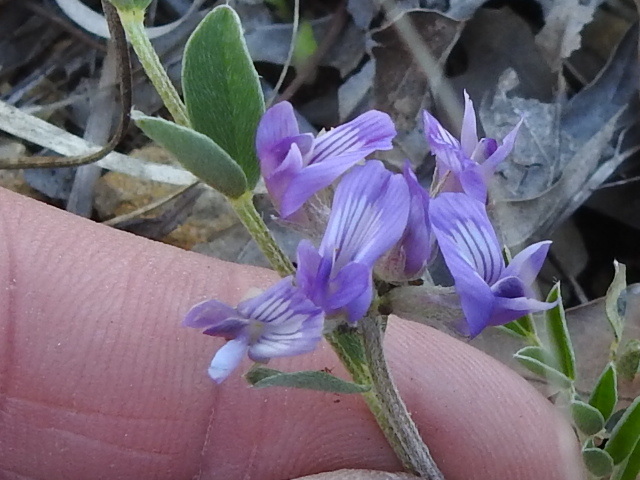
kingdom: Plantae
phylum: Tracheophyta
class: Magnoliopsida
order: Fabales
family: Fabaceae
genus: Astragalus
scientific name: Astragalus lotiflorus
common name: Lotus milk-vetch
